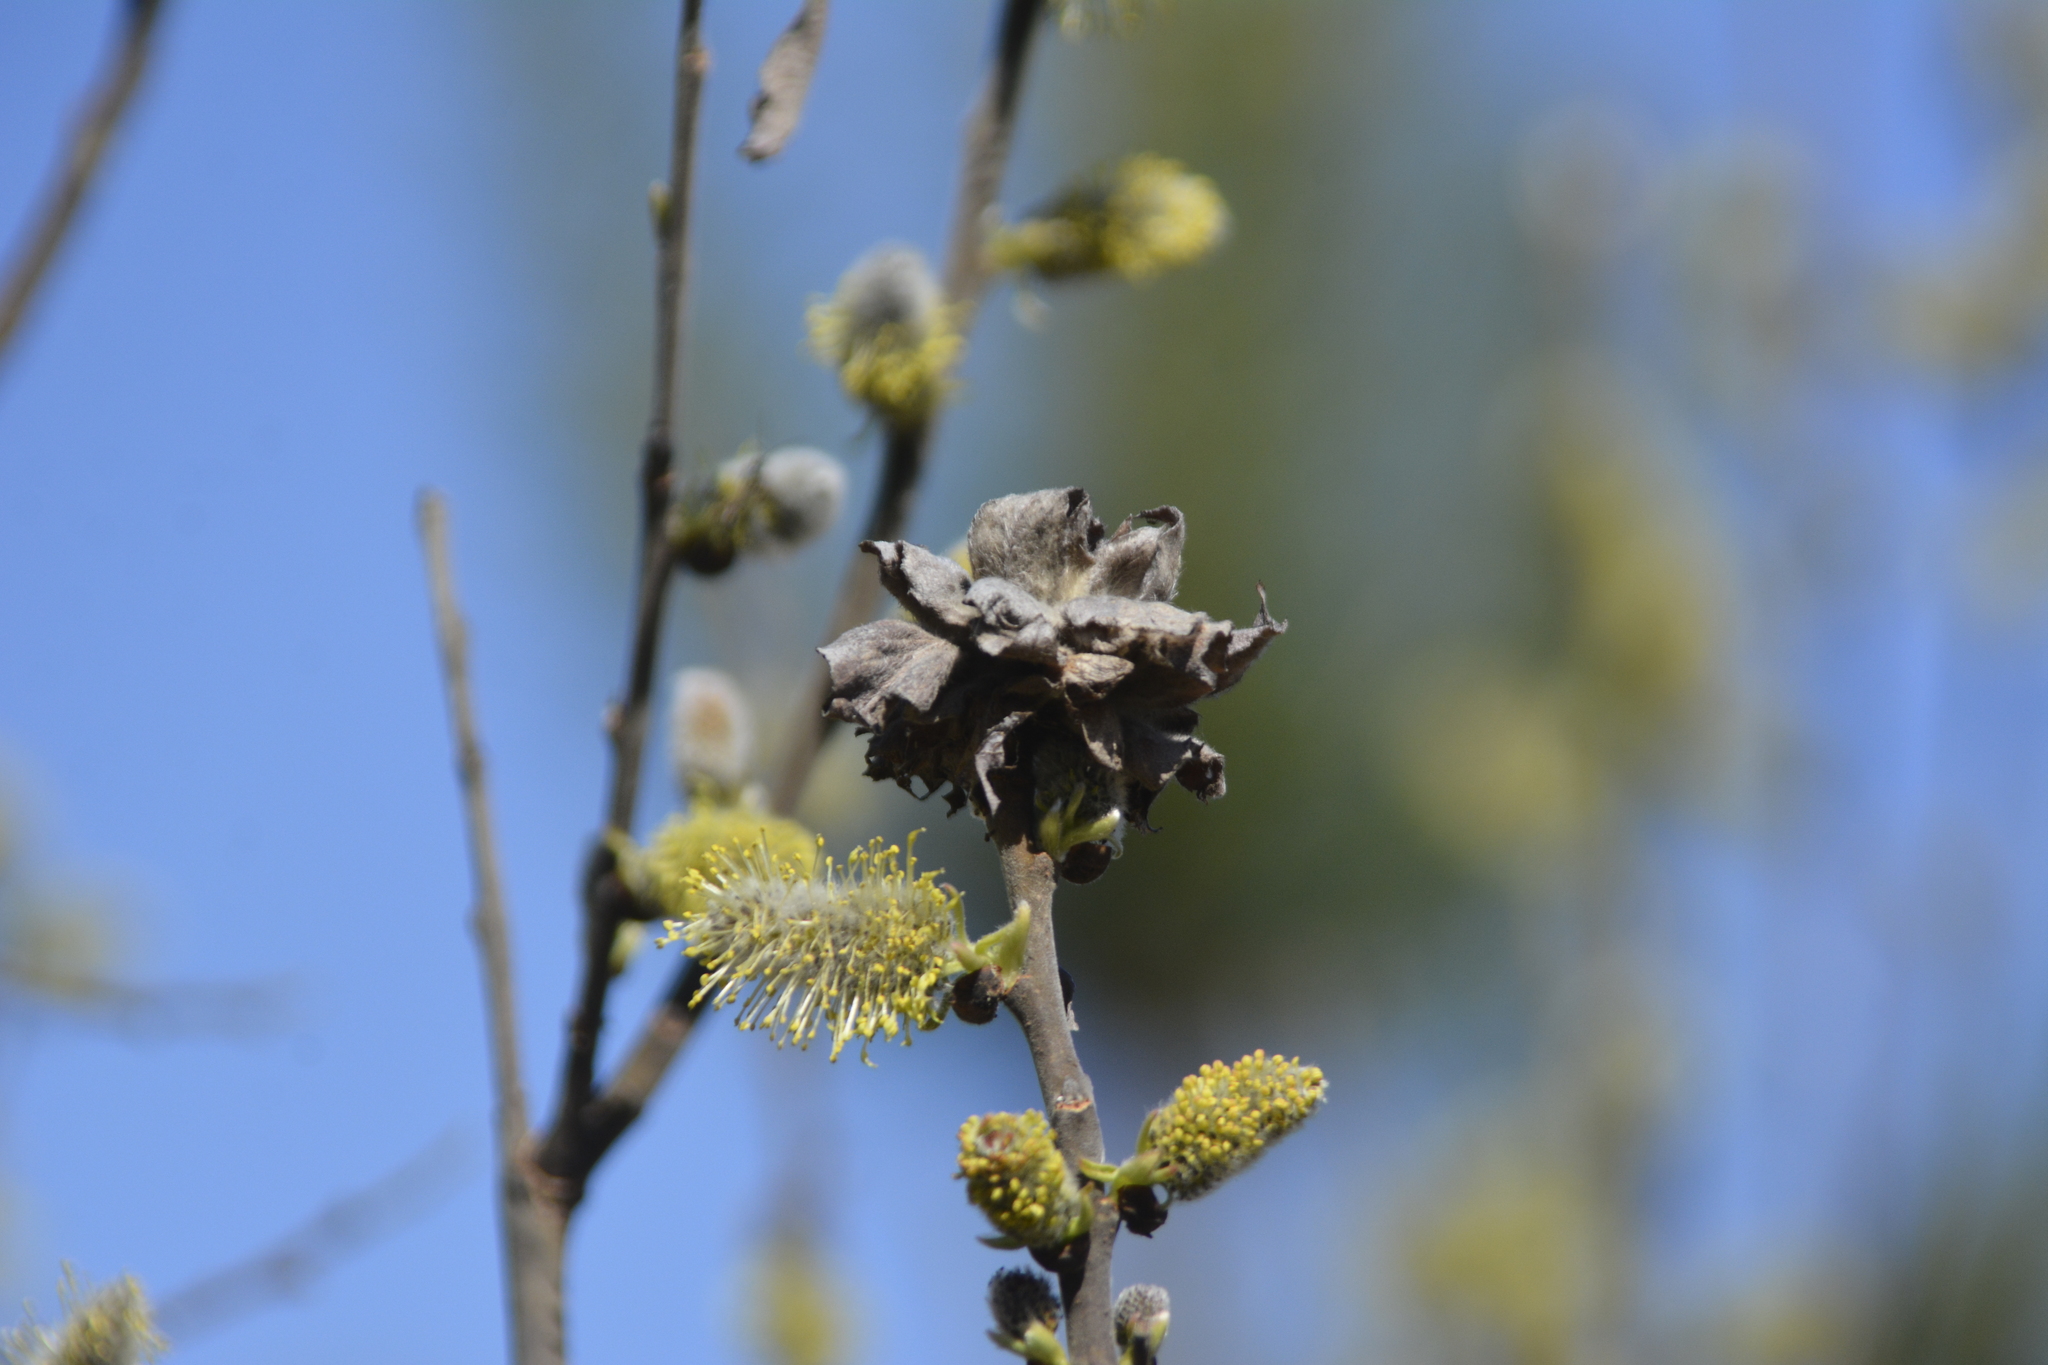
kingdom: Plantae
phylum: Tracheophyta
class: Magnoliopsida
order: Malpighiales
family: Salicaceae
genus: Salix
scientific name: Salix cinerea
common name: Common sallow
